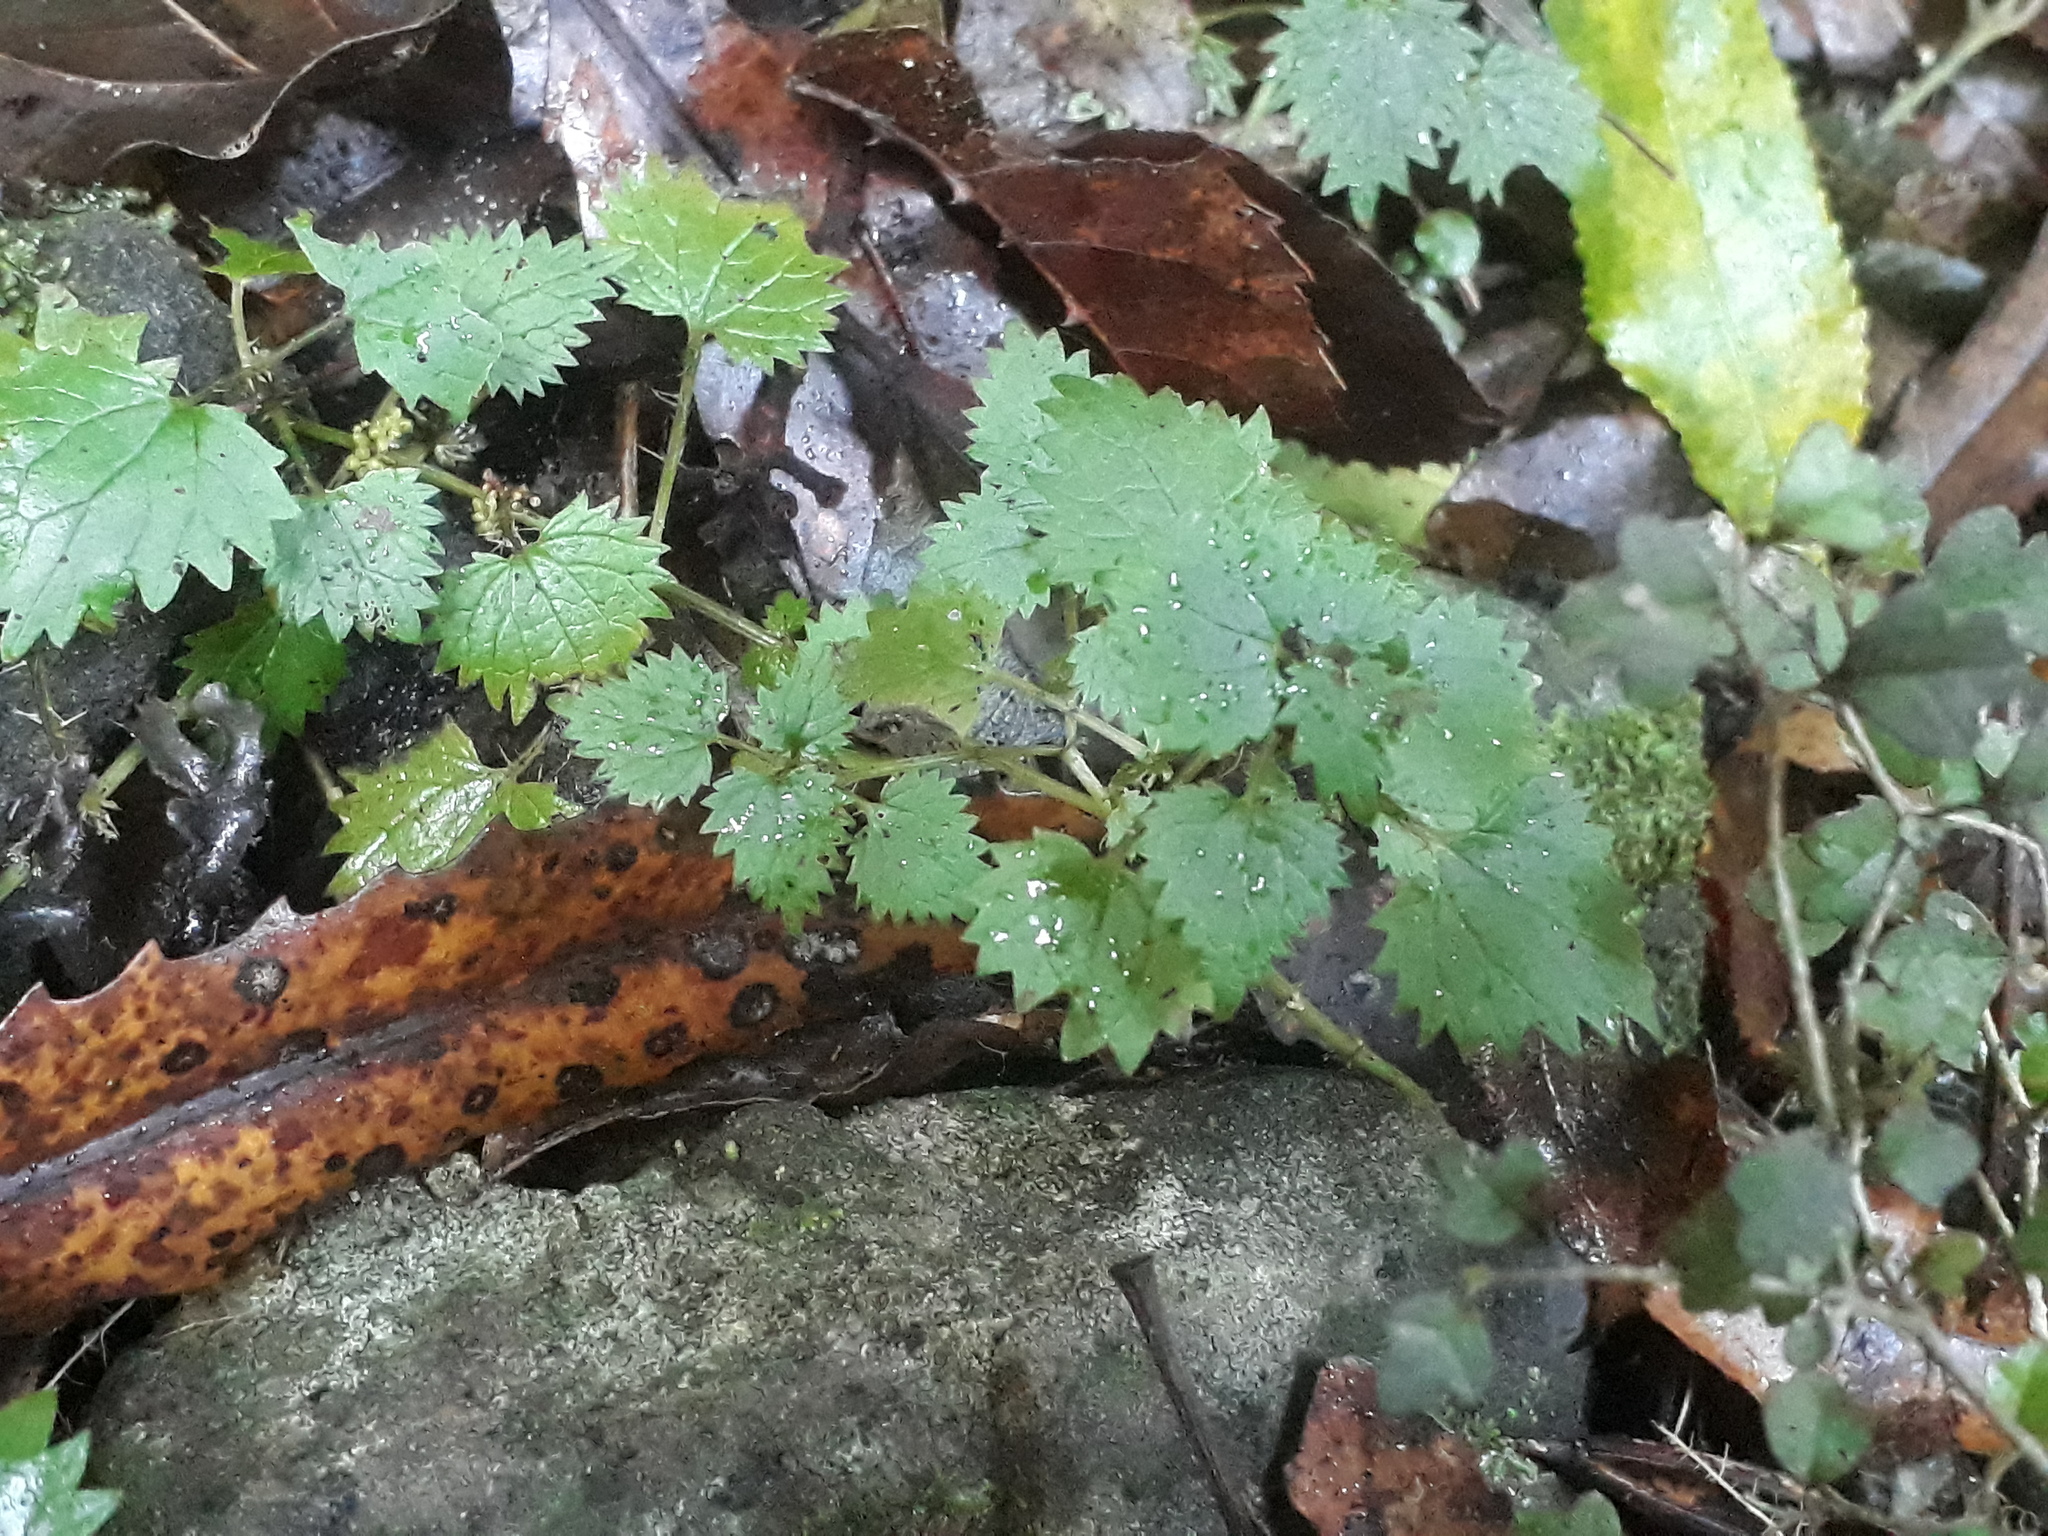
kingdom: Plantae
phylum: Tracheophyta
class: Magnoliopsida
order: Rosales
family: Urticaceae
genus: Urtica
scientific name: Urtica sykesii
